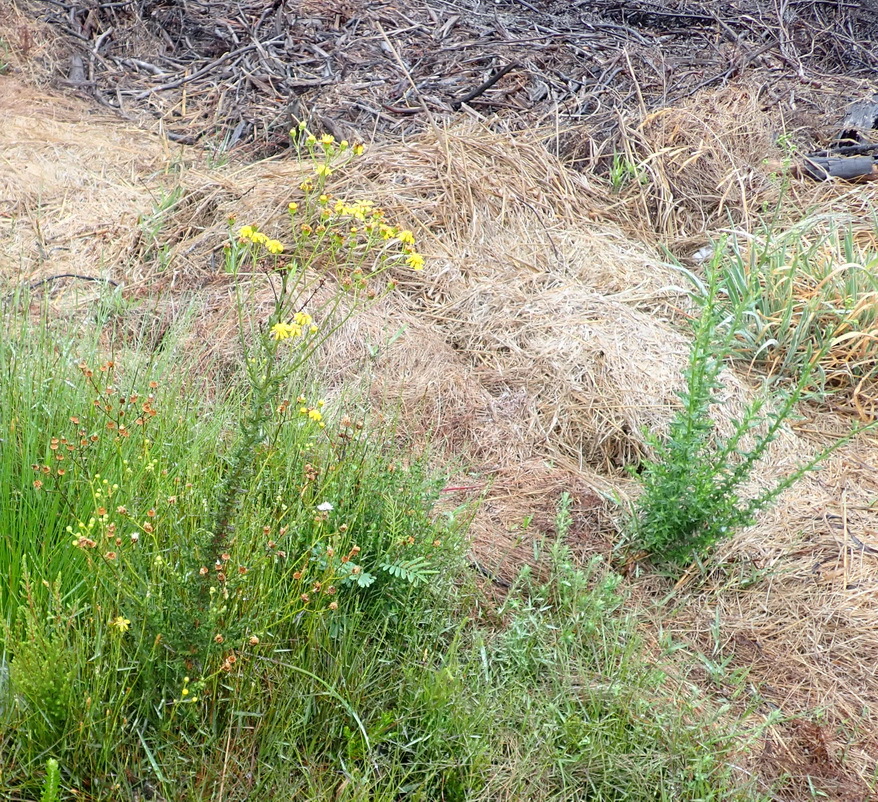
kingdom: Plantae
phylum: Tracheophyta
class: Magnoliopsida
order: Asterales
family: Asteraceae
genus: Senecio
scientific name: Senecio ilicifolius
